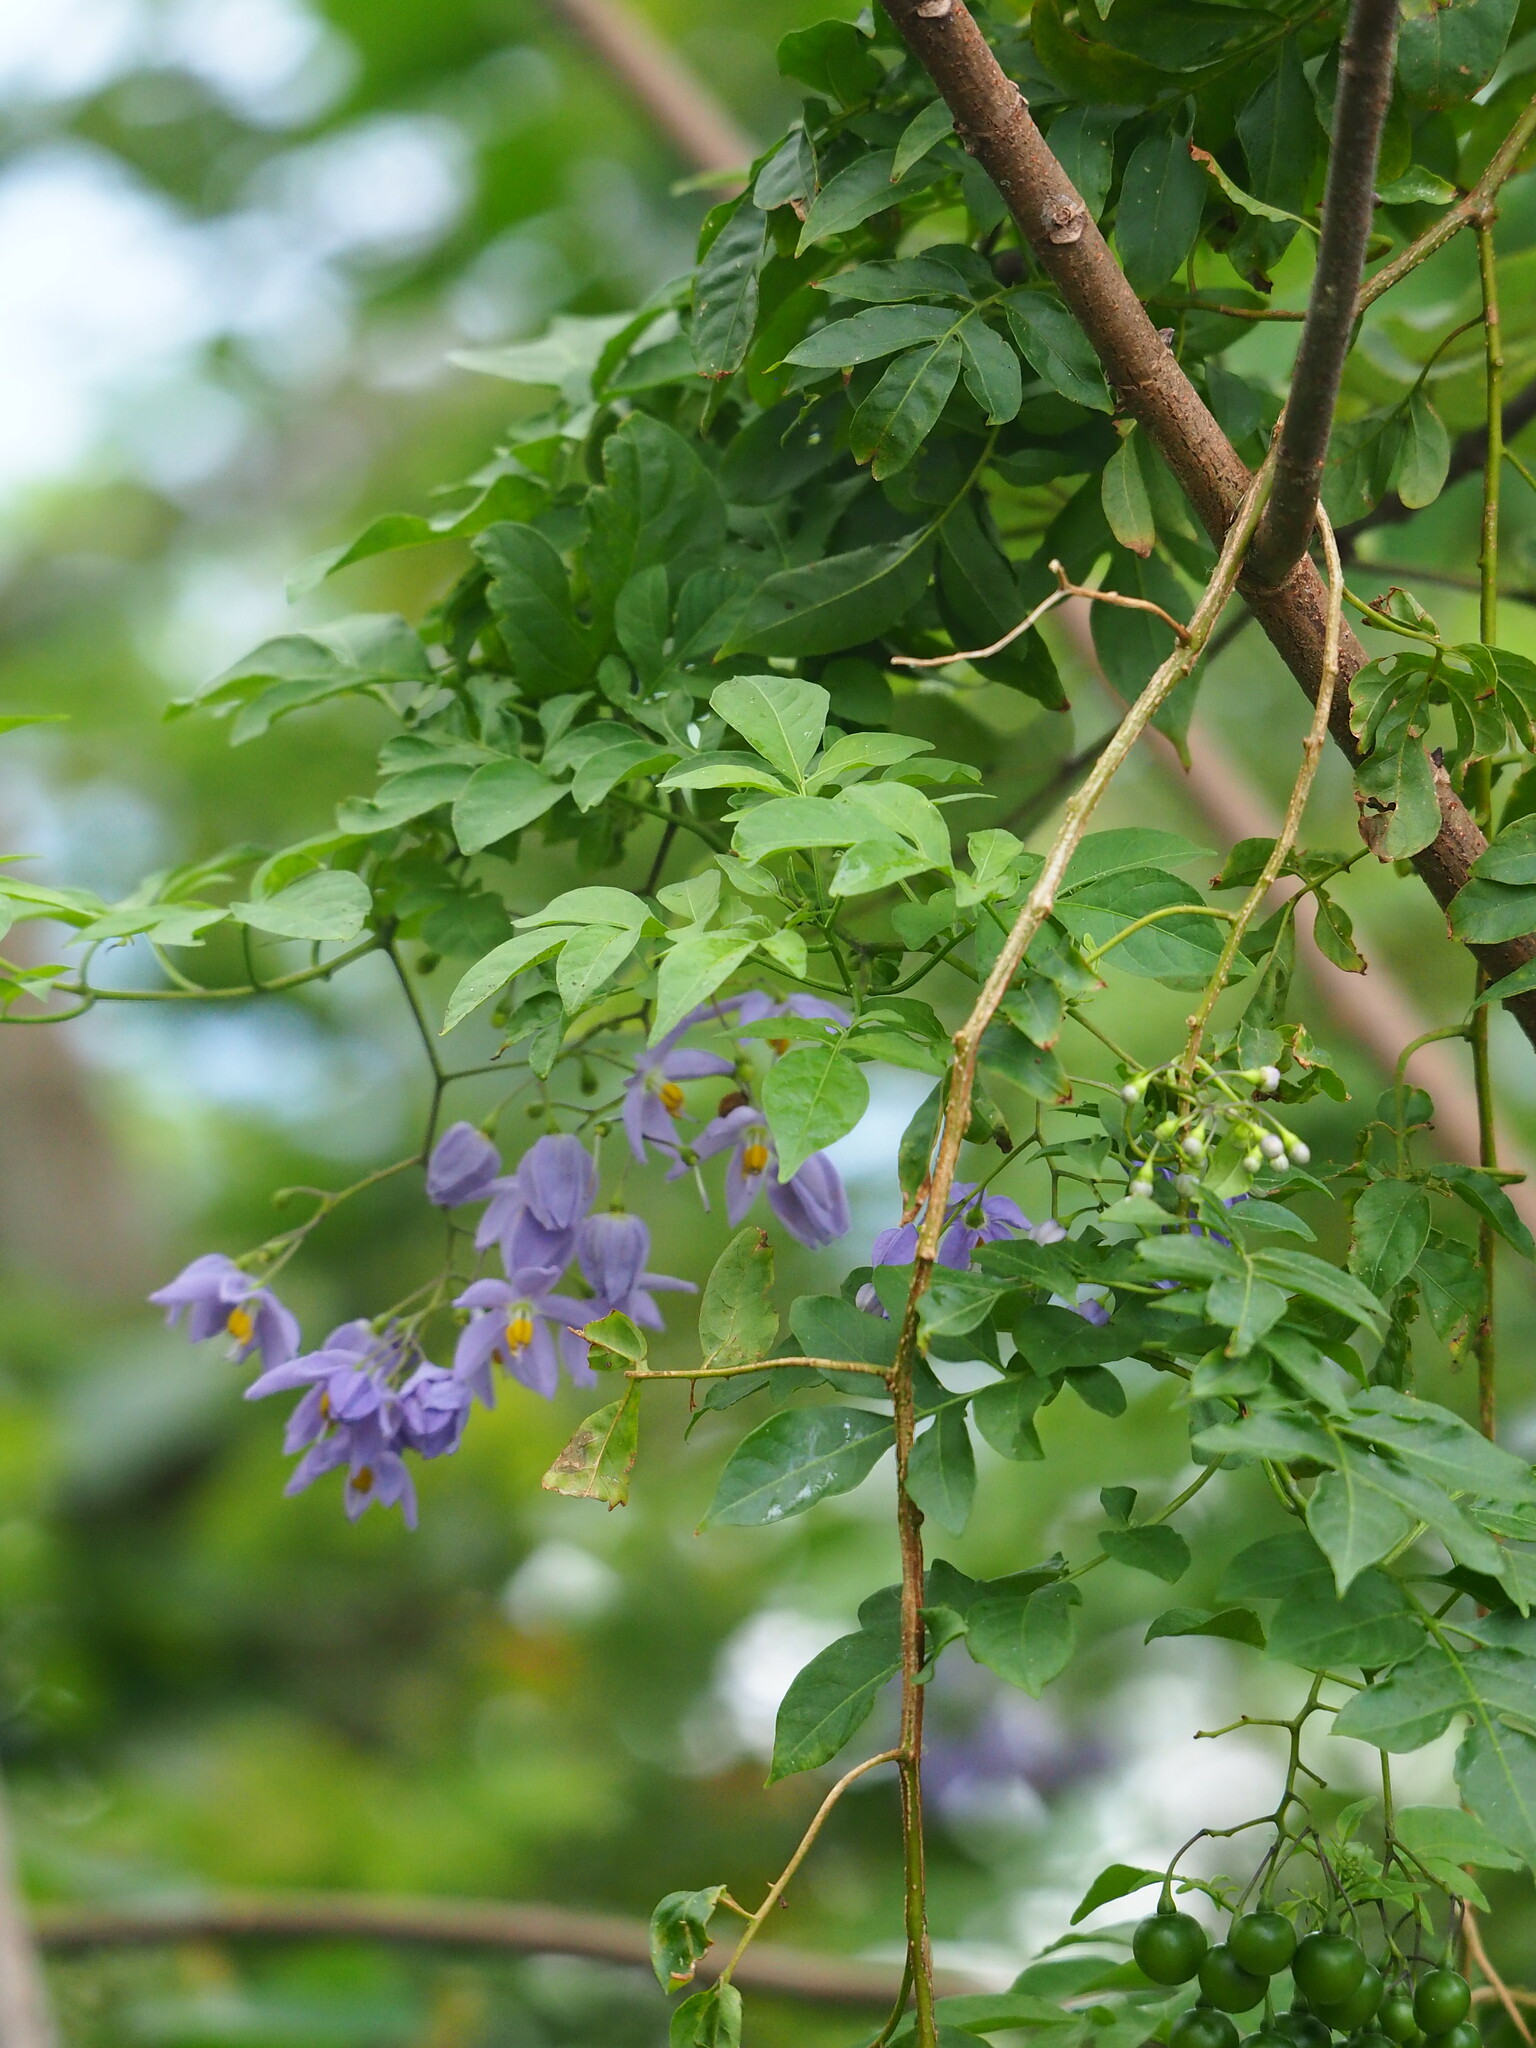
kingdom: Plantae
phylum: Tracheophyta
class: Magnoliopsida
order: Solanales
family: Solanaceae
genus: Solanum
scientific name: Solanum seaforthianum
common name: Brazilian nightshade
